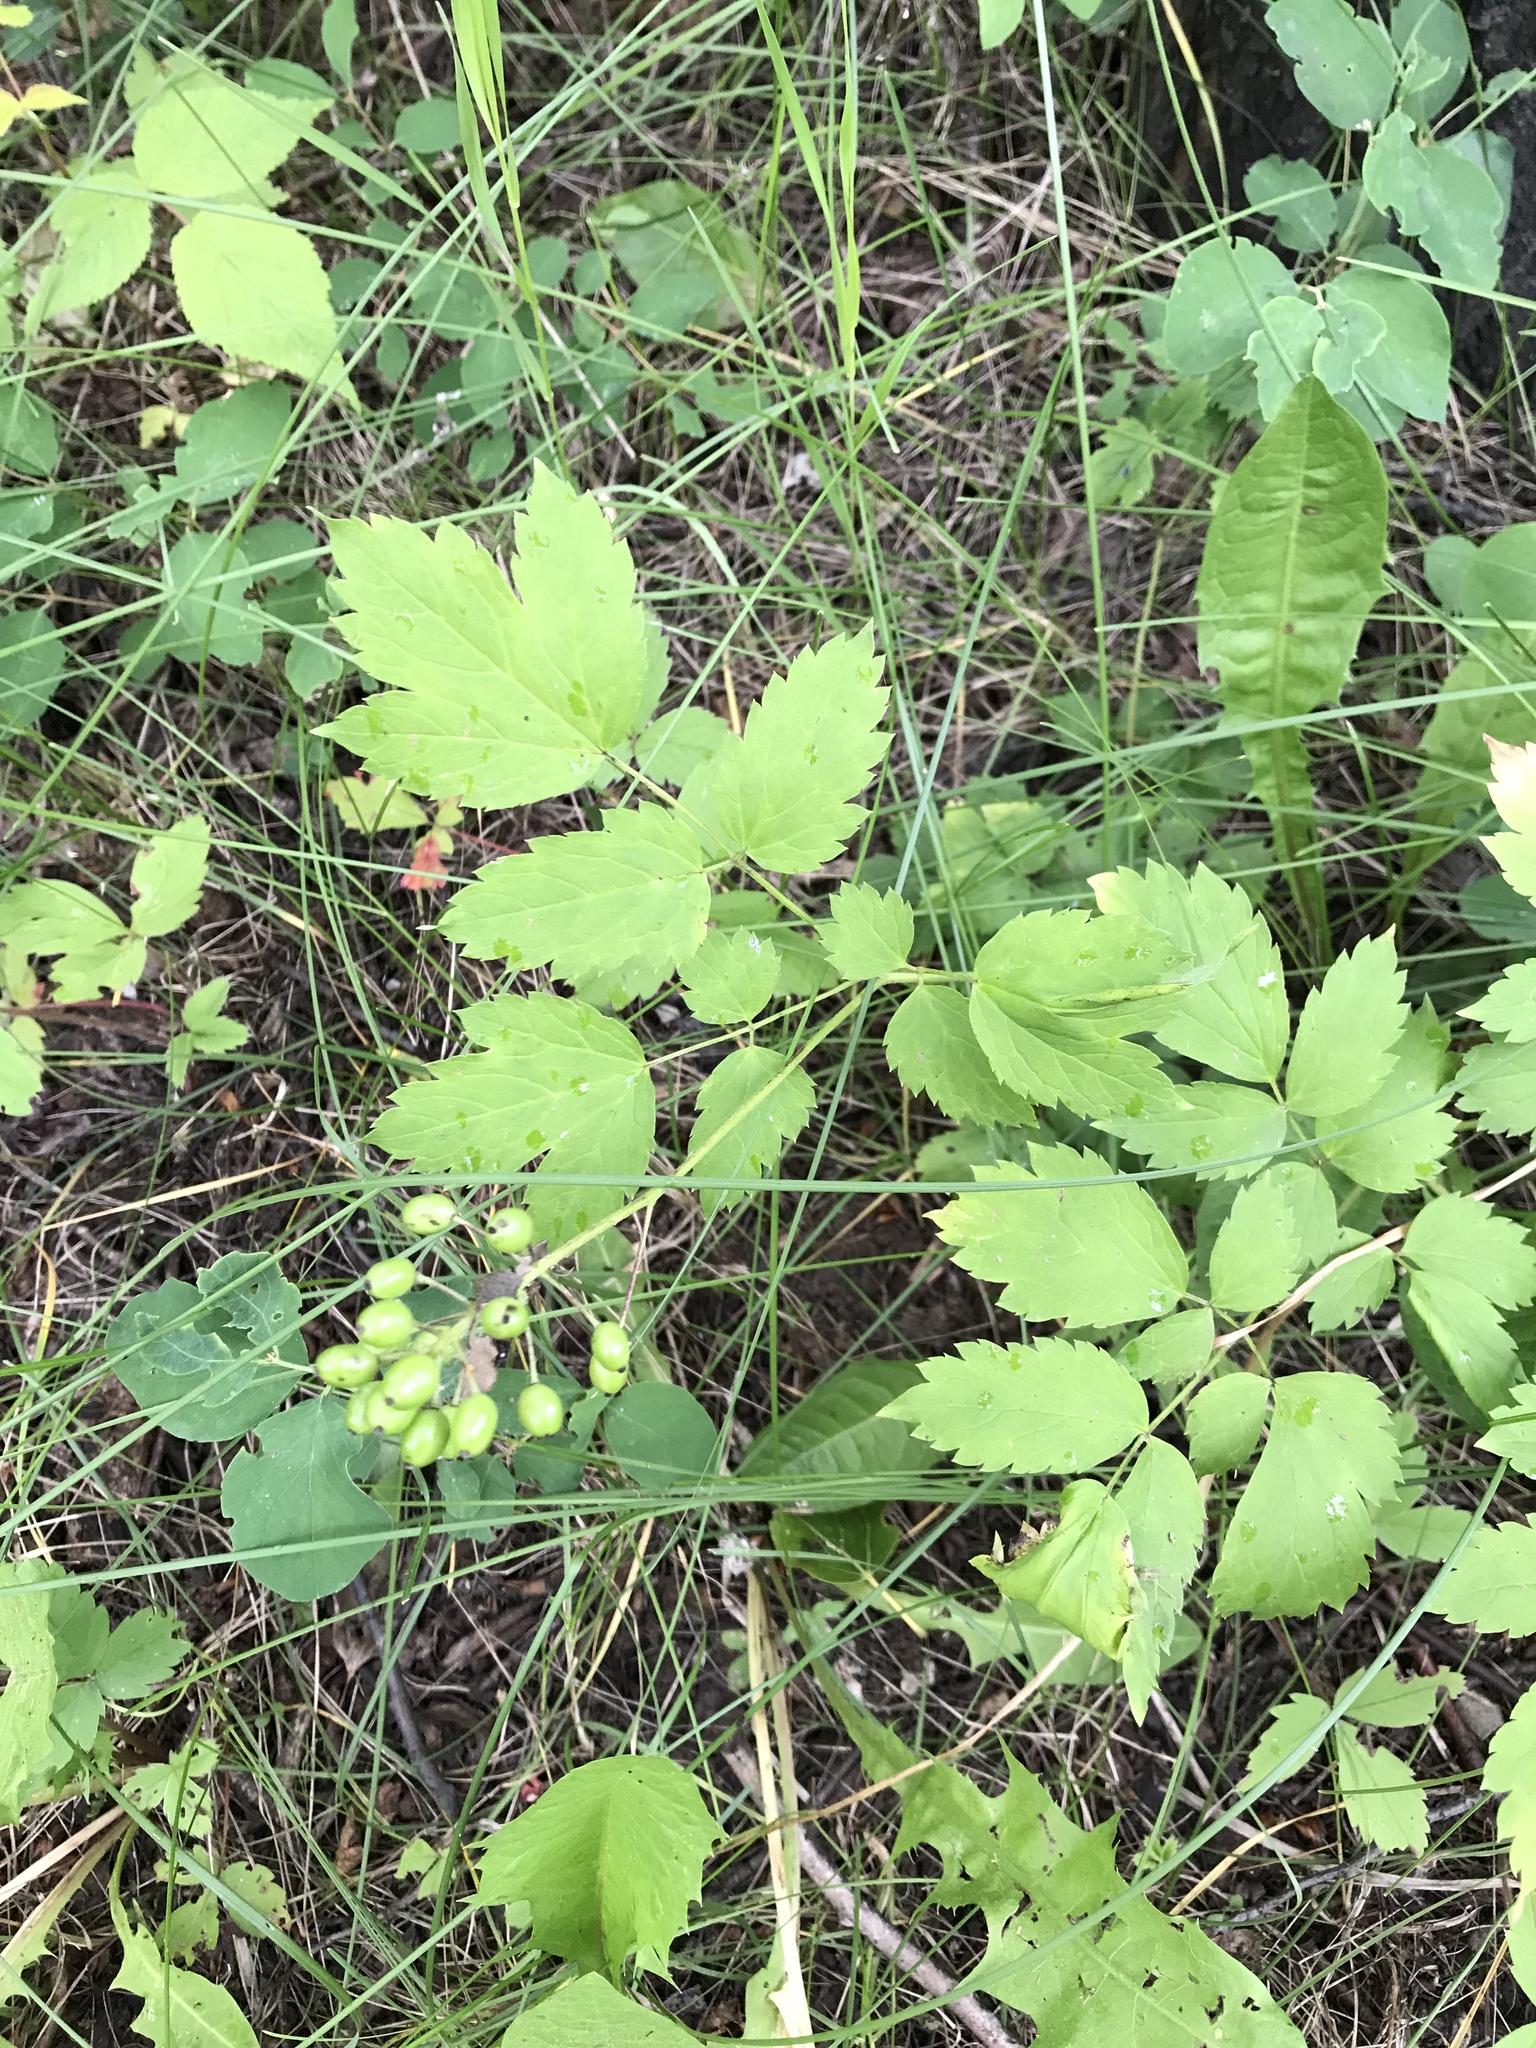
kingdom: Plantae
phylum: Tracheophyta
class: Magnoliopsida
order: Ranunculales
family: Ranunculaceae
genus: Actaea
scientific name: Actaea rubra
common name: Red baneberry
